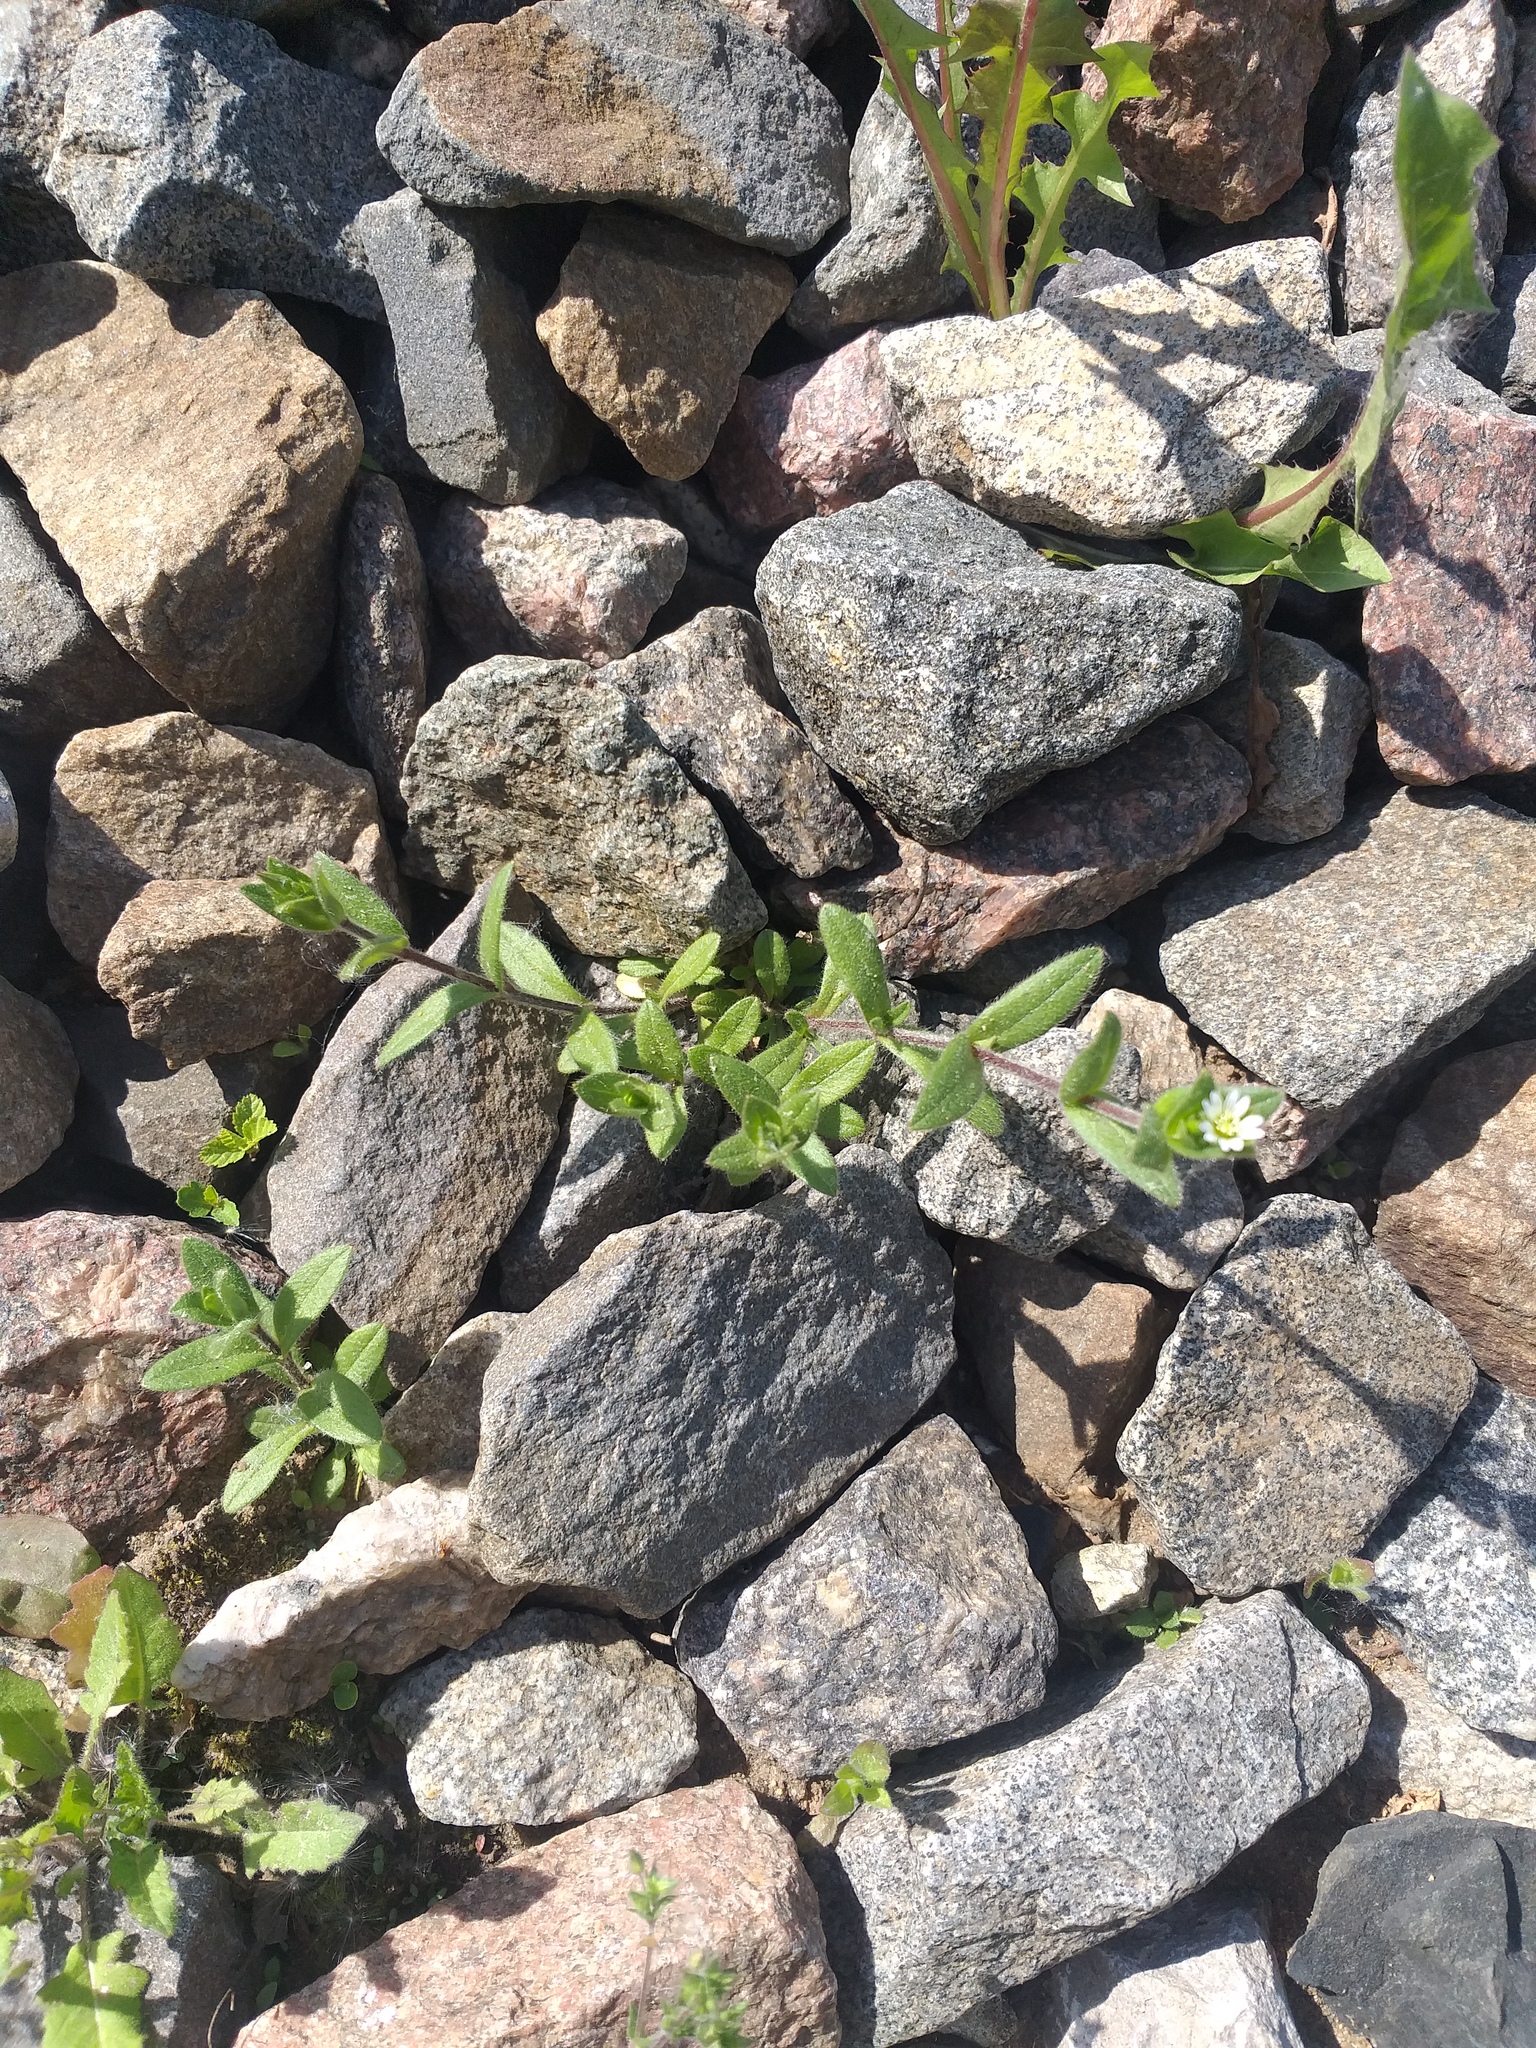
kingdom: Plantae
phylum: Tracheophyta
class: Magnoliopsida
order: Caryophyllales
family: Caryophyllaceae
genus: Cerastium
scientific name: Cerastium holosteoides
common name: Big chickweed
